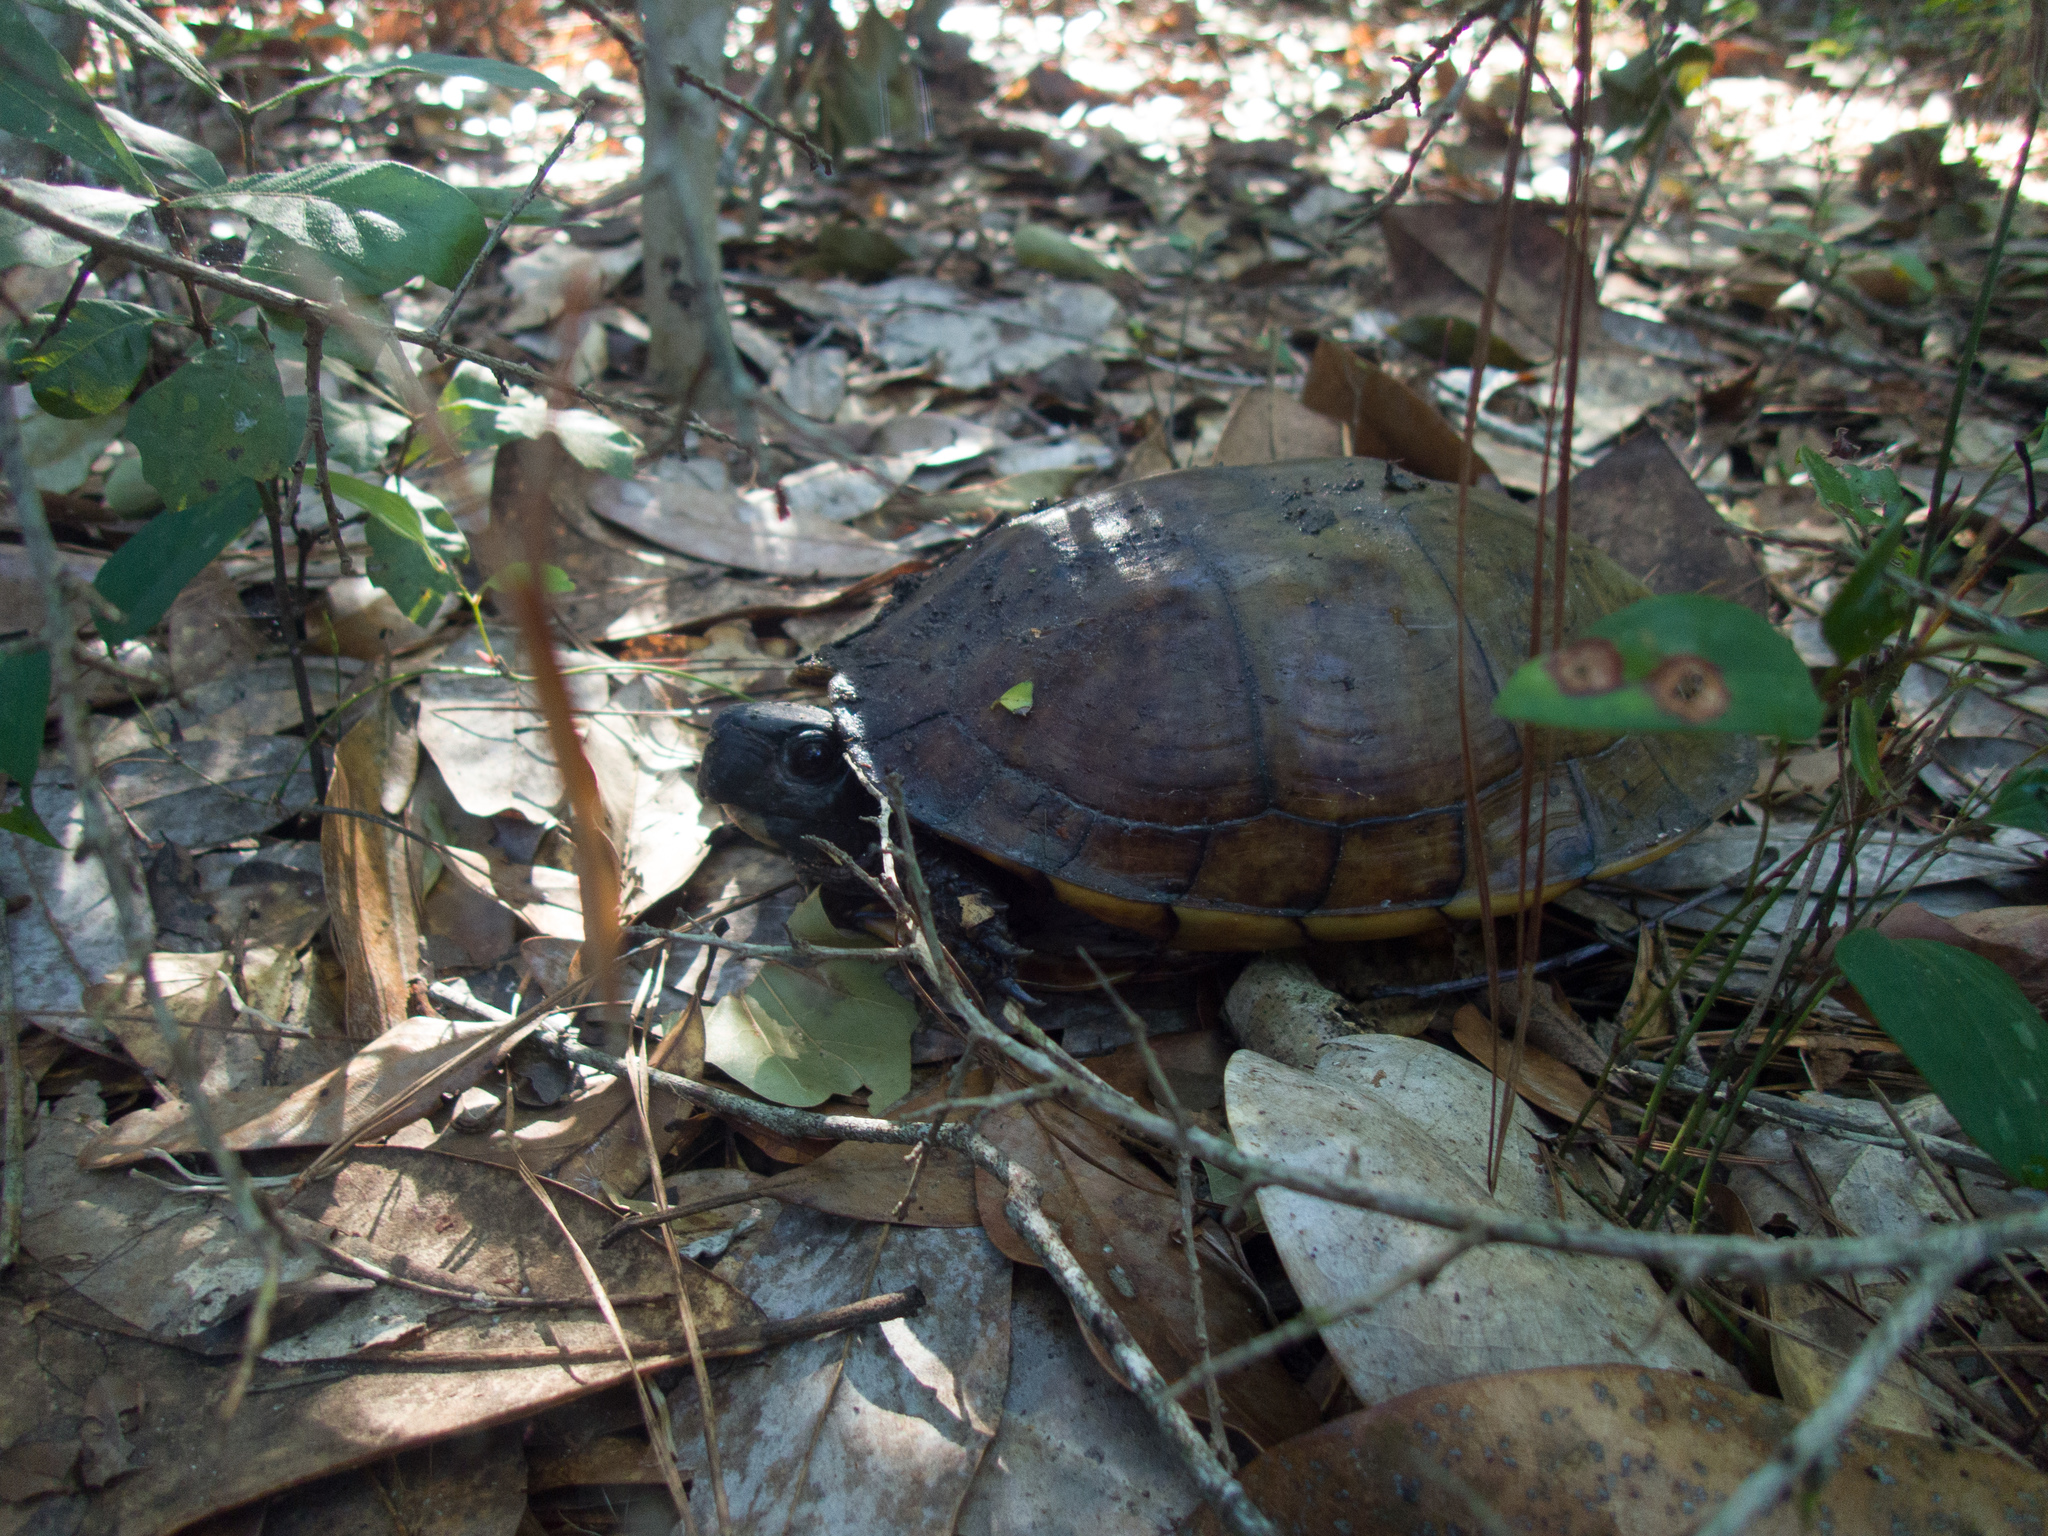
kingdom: Animalia
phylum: Chordata
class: Testudines
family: Emydidae
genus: Terrapene
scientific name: Terrapene carolina
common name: Common box turtle
